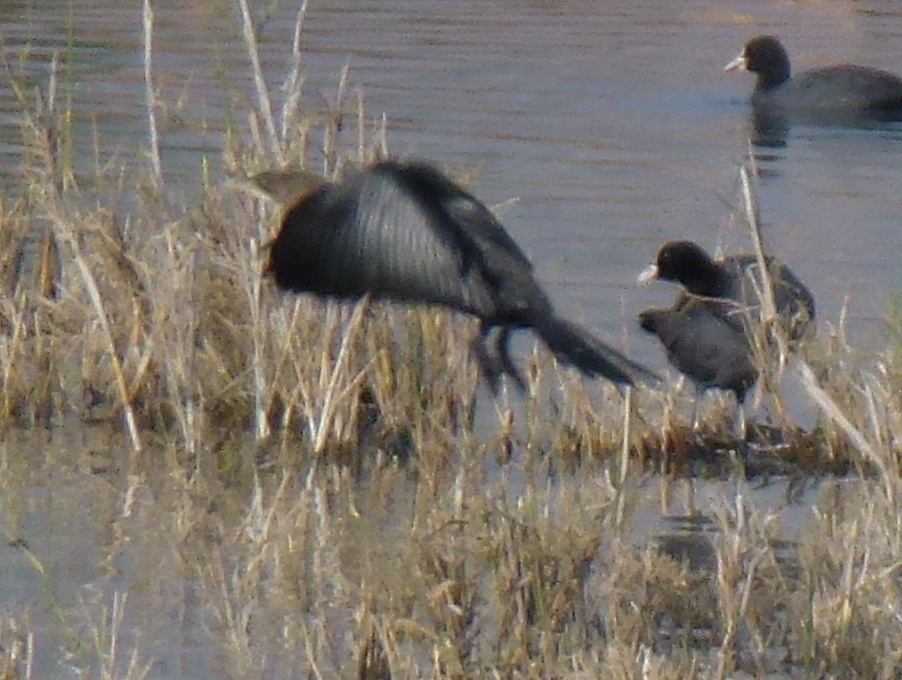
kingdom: Animalia
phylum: Chordata
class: Aves
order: Suliformes
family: Phalacrocoracidae
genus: Microcarbo
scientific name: Microcarbo pygmaeus
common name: Pygmy cormorant
